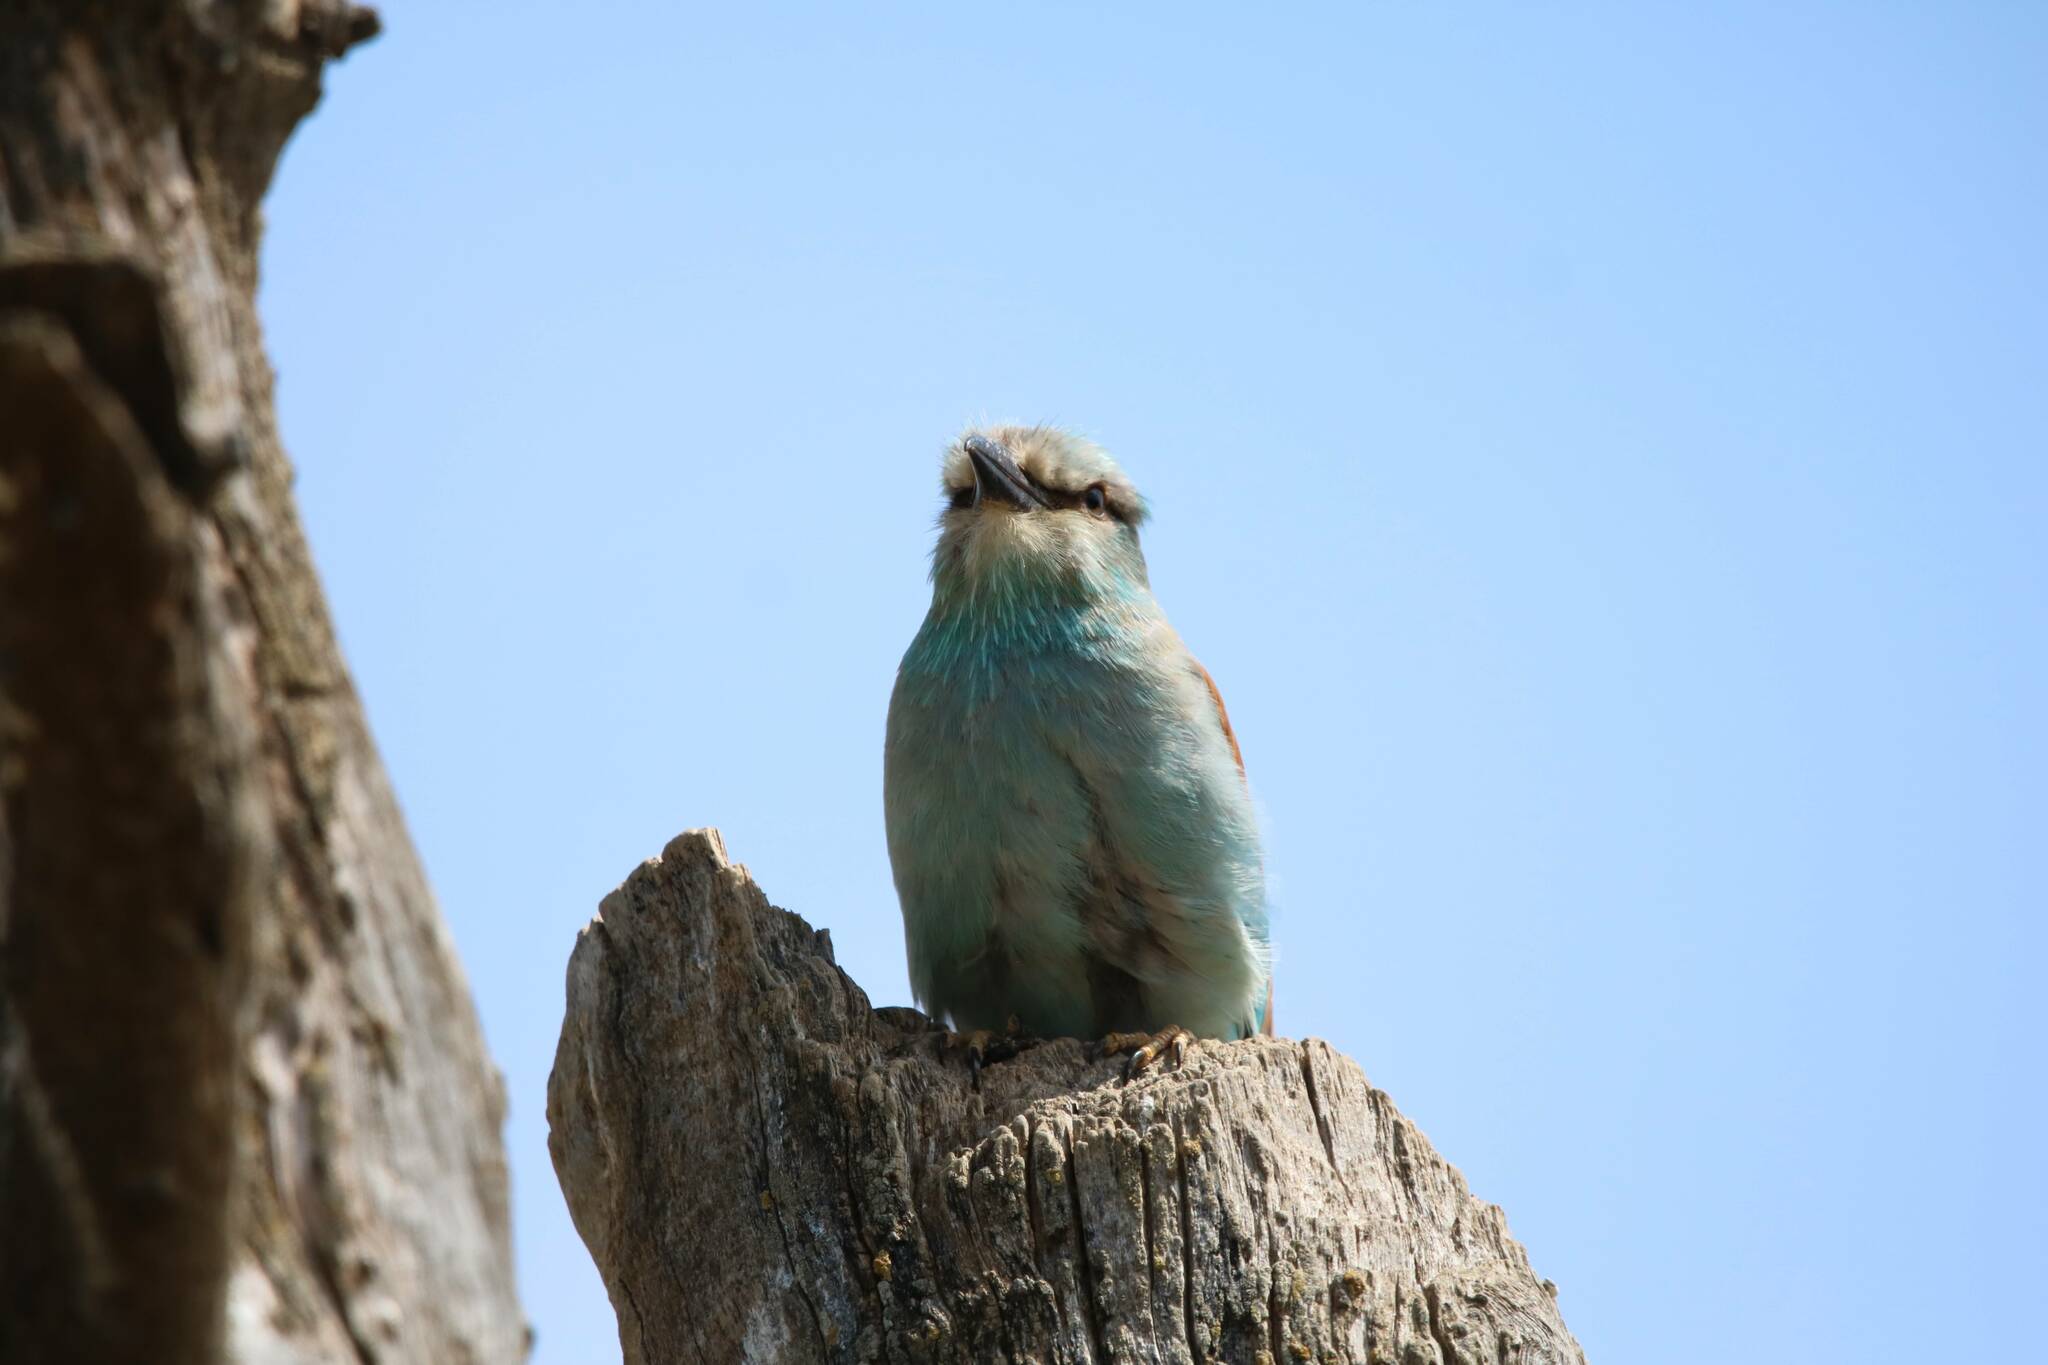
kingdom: Animalia
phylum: Chordata
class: Aves
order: Coraciiformes
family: Coraciidae
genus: Coracias
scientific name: Coracias garrulus
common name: European roller
